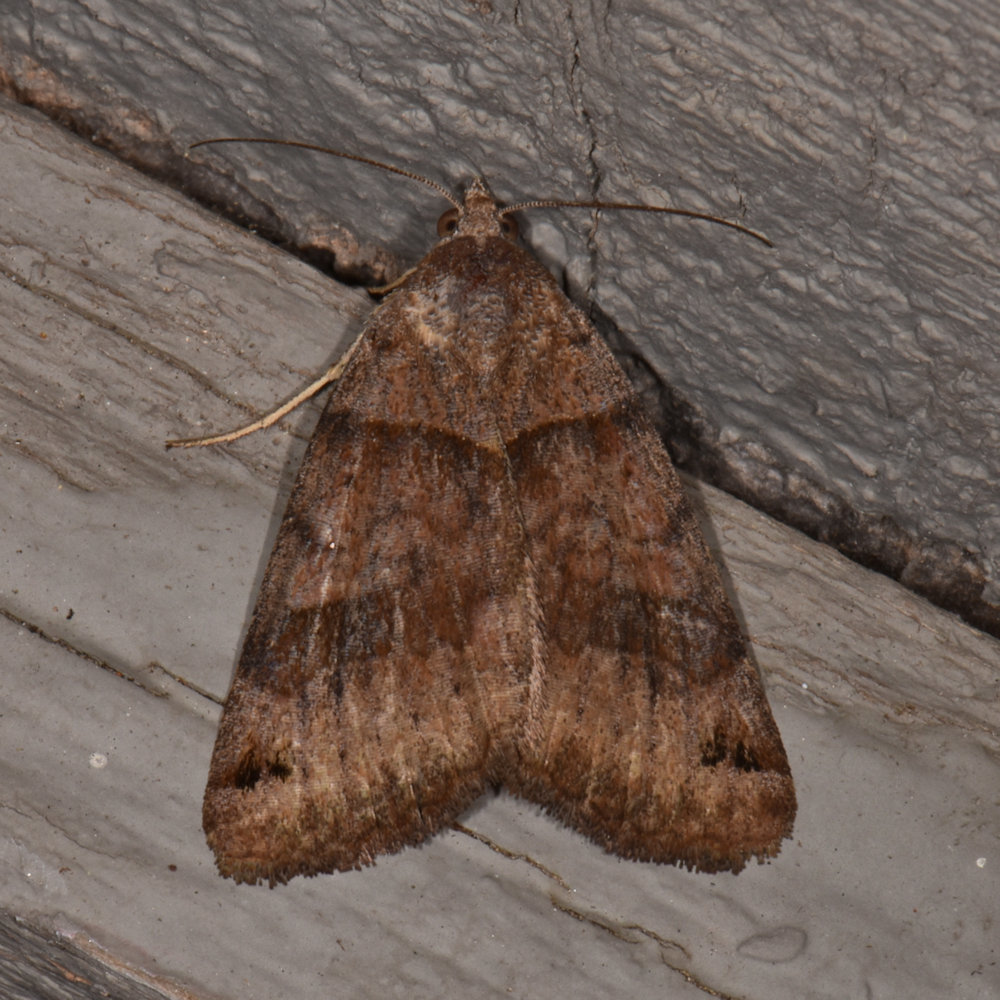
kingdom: Animalia
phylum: Arthropoda
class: Insecta
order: Lepidoptera
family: Erebidae
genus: Caenurgina
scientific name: Caenurgina crassiuscula
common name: Double-barred
